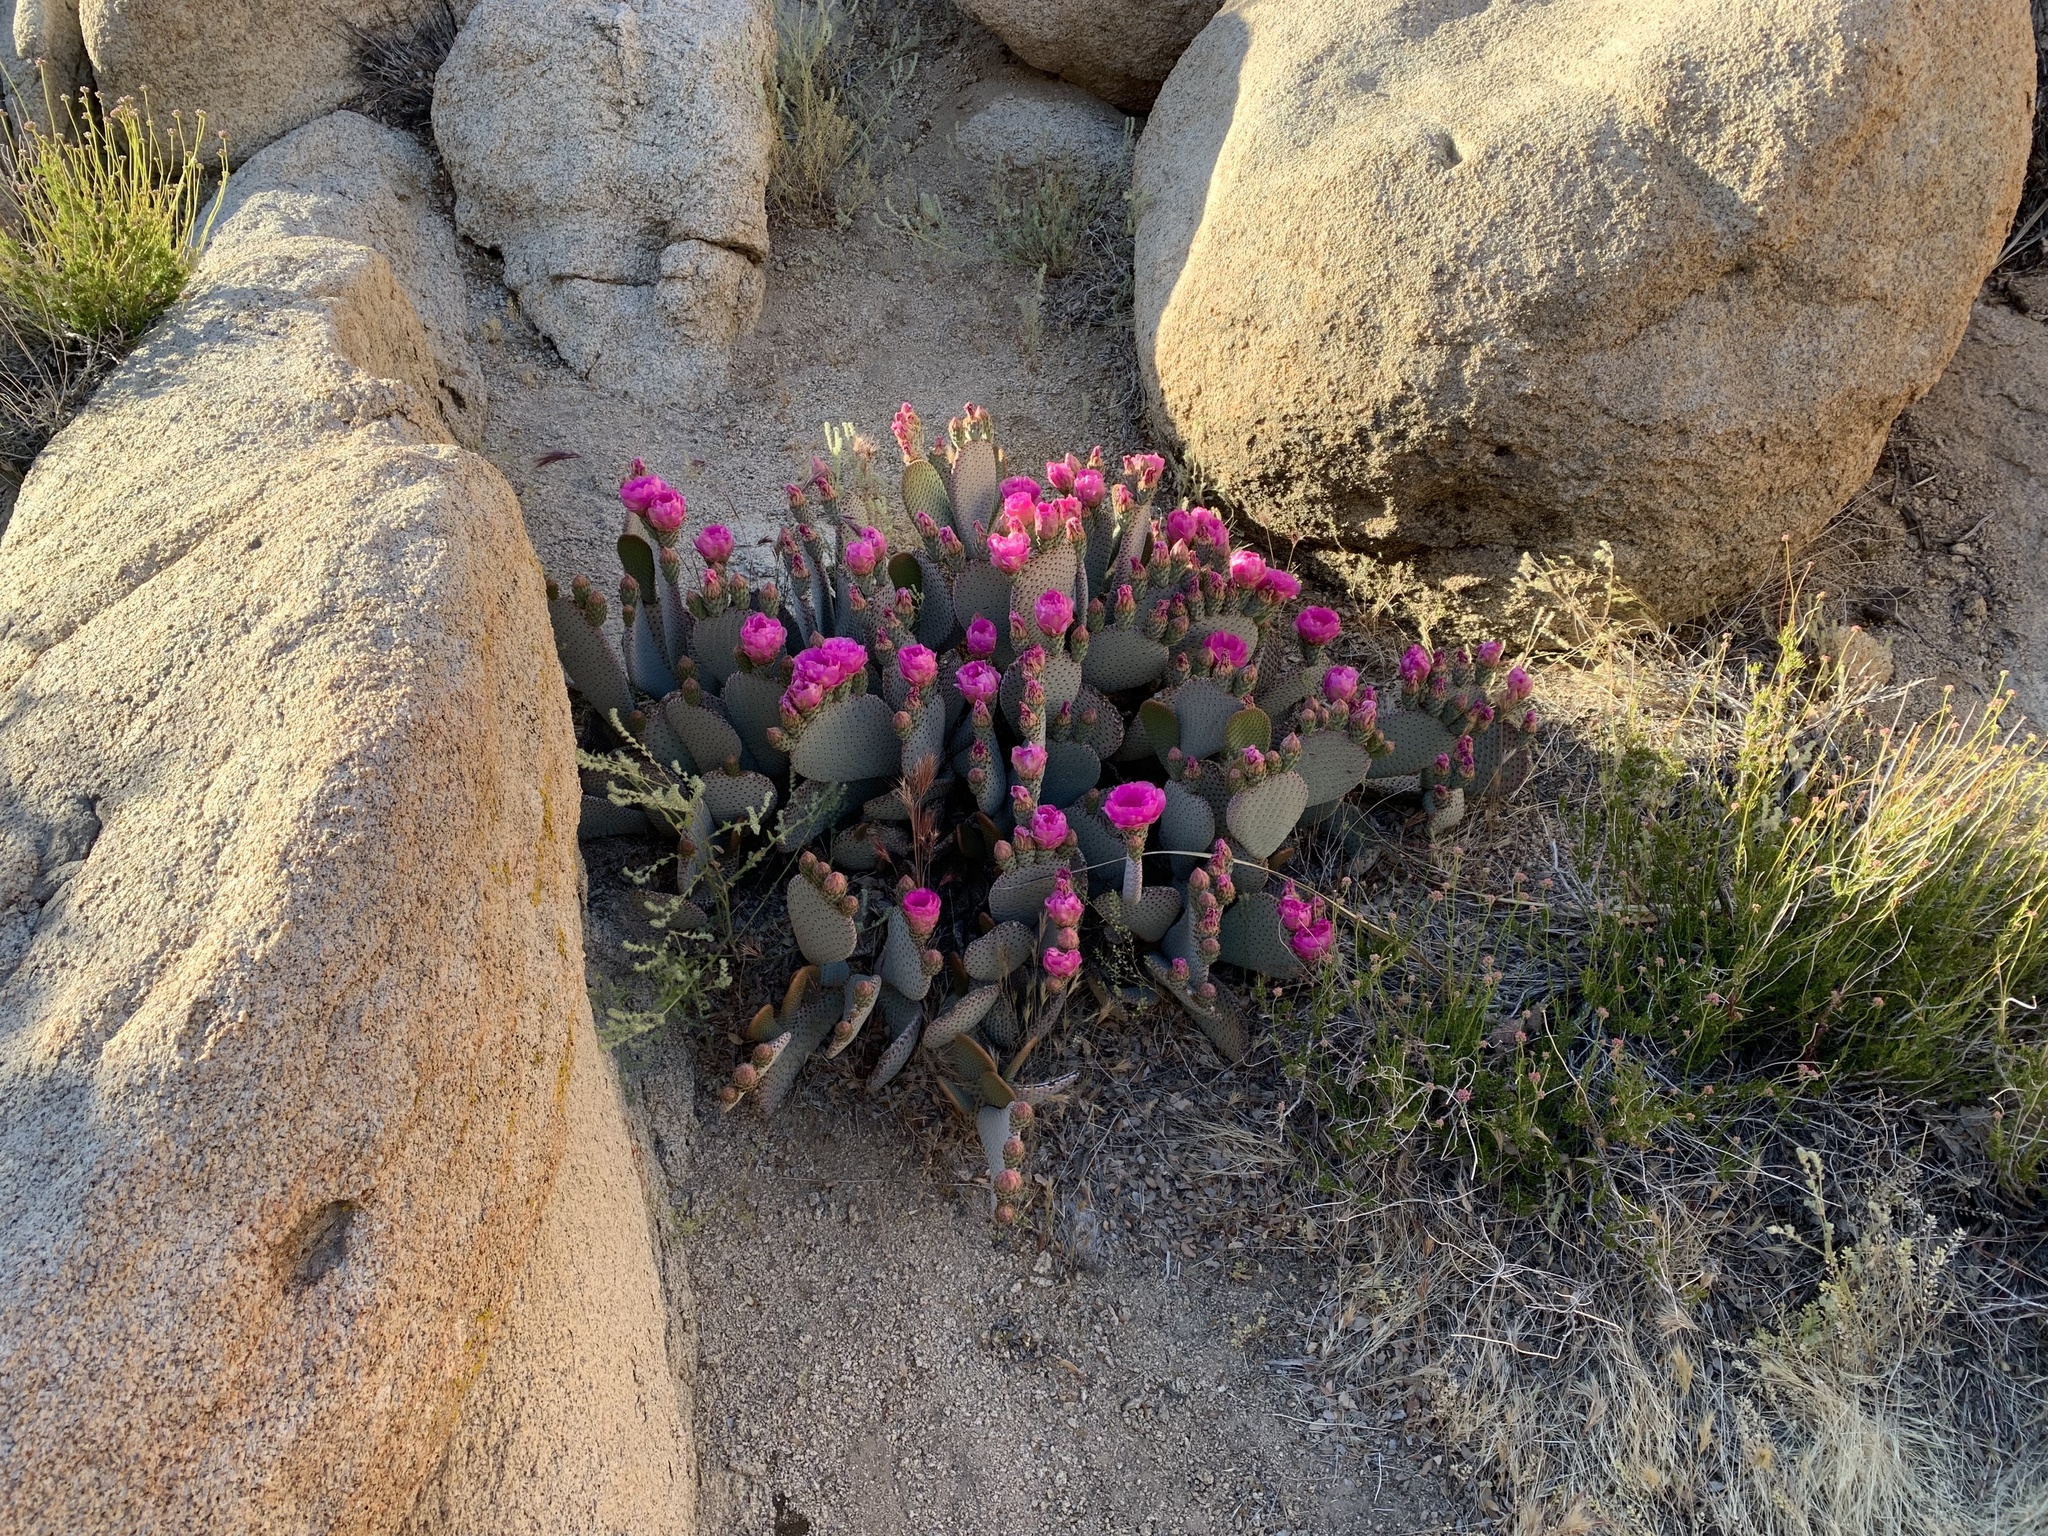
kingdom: Plantae
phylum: Tracheophyta
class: Magnoliopsida
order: Caryophyllales
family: Cactaceae
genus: Opuntia
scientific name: Opuntia basilaris
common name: Beavertail prickly-pear
